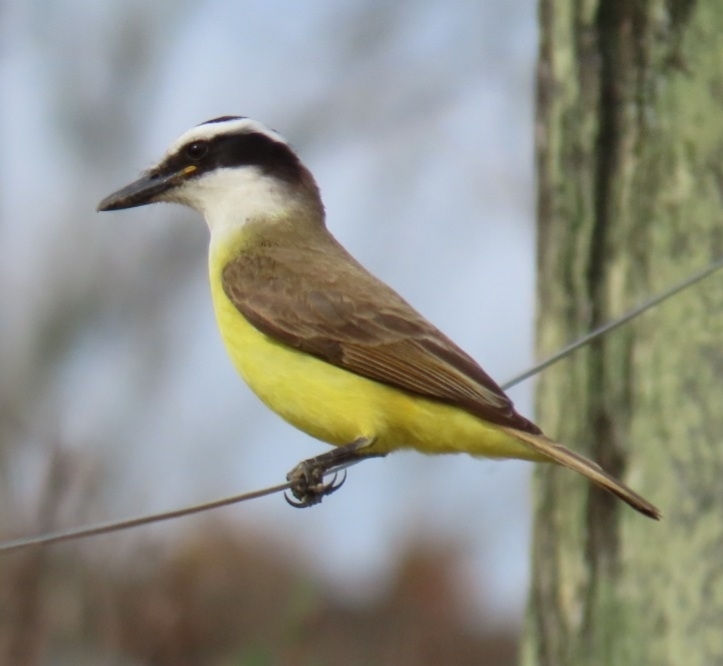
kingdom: Animalia
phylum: Chordata
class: Aves
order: Passeriformes
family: Tyrannidae
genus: Pitangus
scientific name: Pitangus sulphuratus
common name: Great kiskadee
